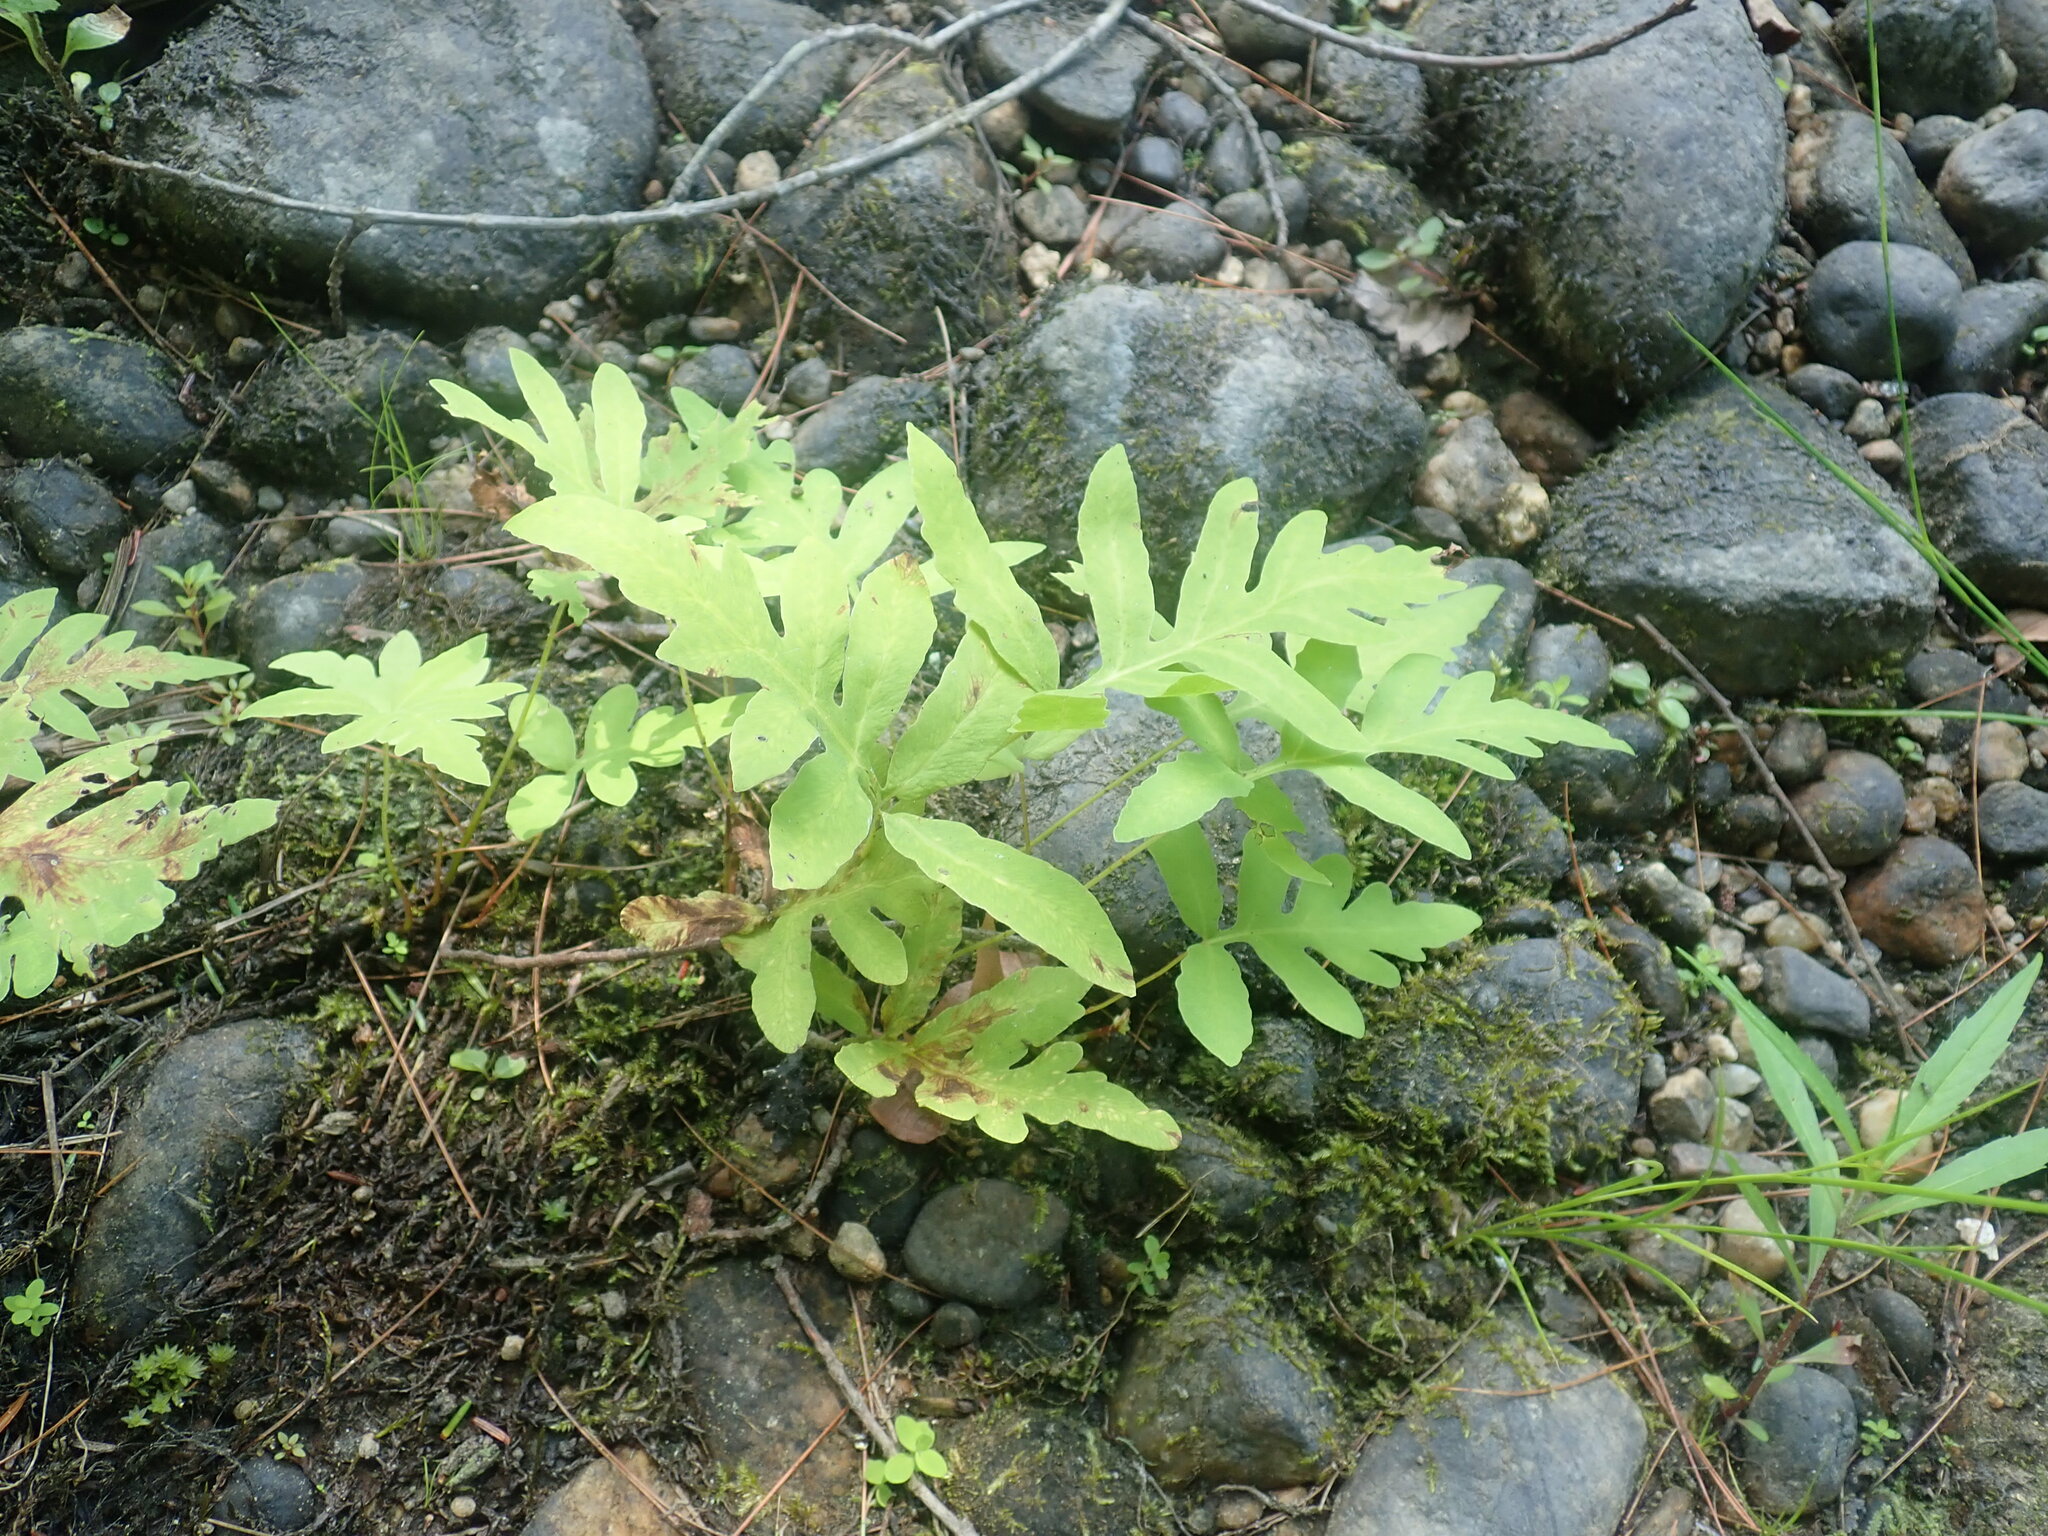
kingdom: Plantae
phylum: Tracheophyta
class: Polypodiopsida
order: Polypodiales
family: Onocleaceae
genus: Onoclea
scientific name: Onoclea sensibilis
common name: Sensitive fern
